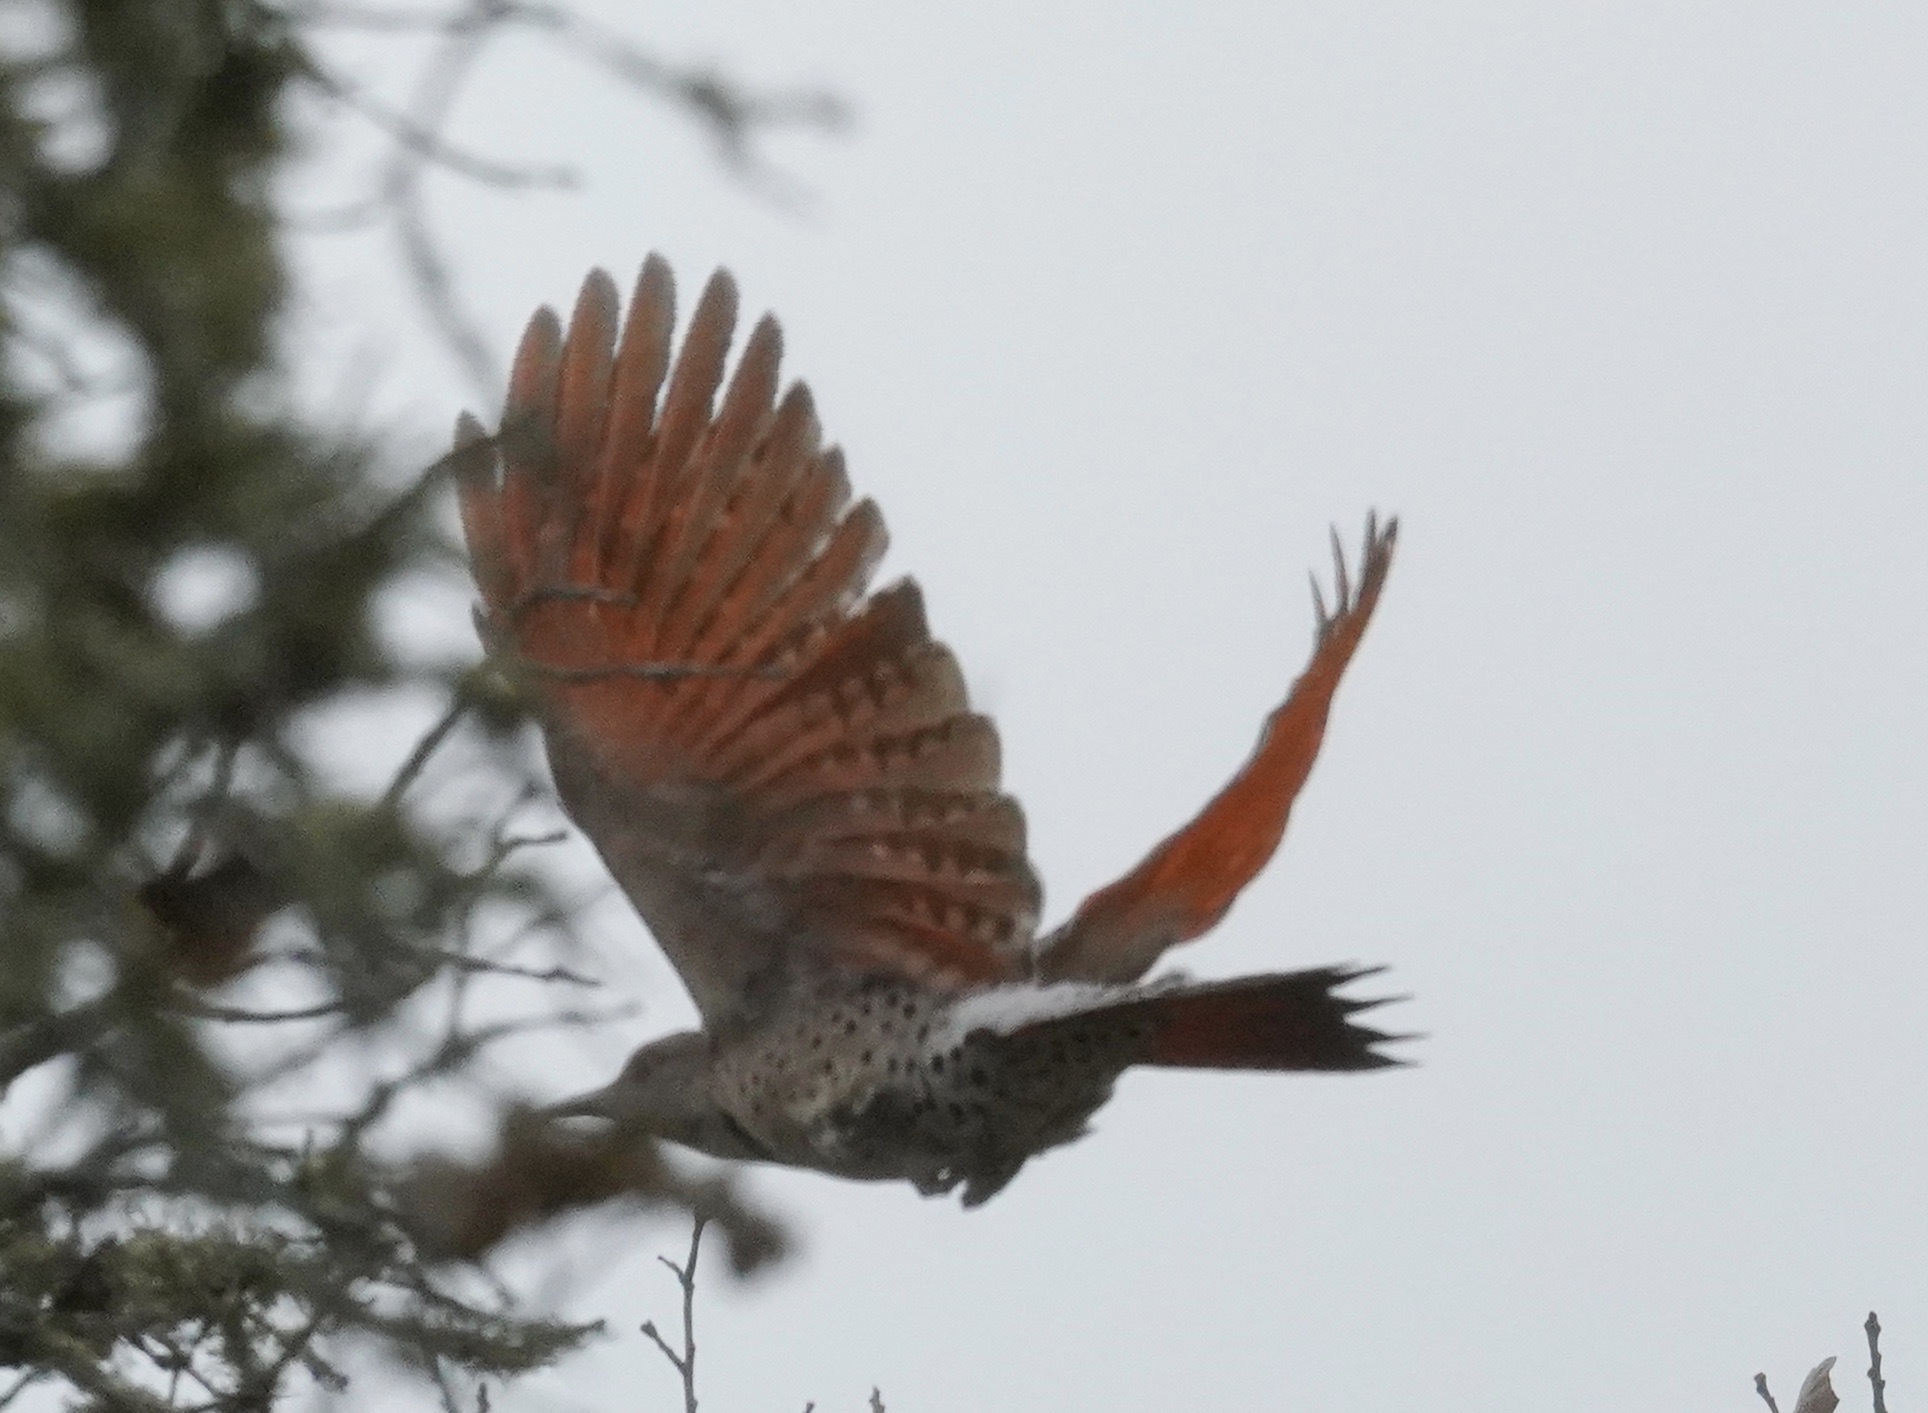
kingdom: Animalia
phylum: Chordata
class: Aves
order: Piciformes
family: Picidae
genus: Colaptes
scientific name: Colaptes auratus
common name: Northern flicker
